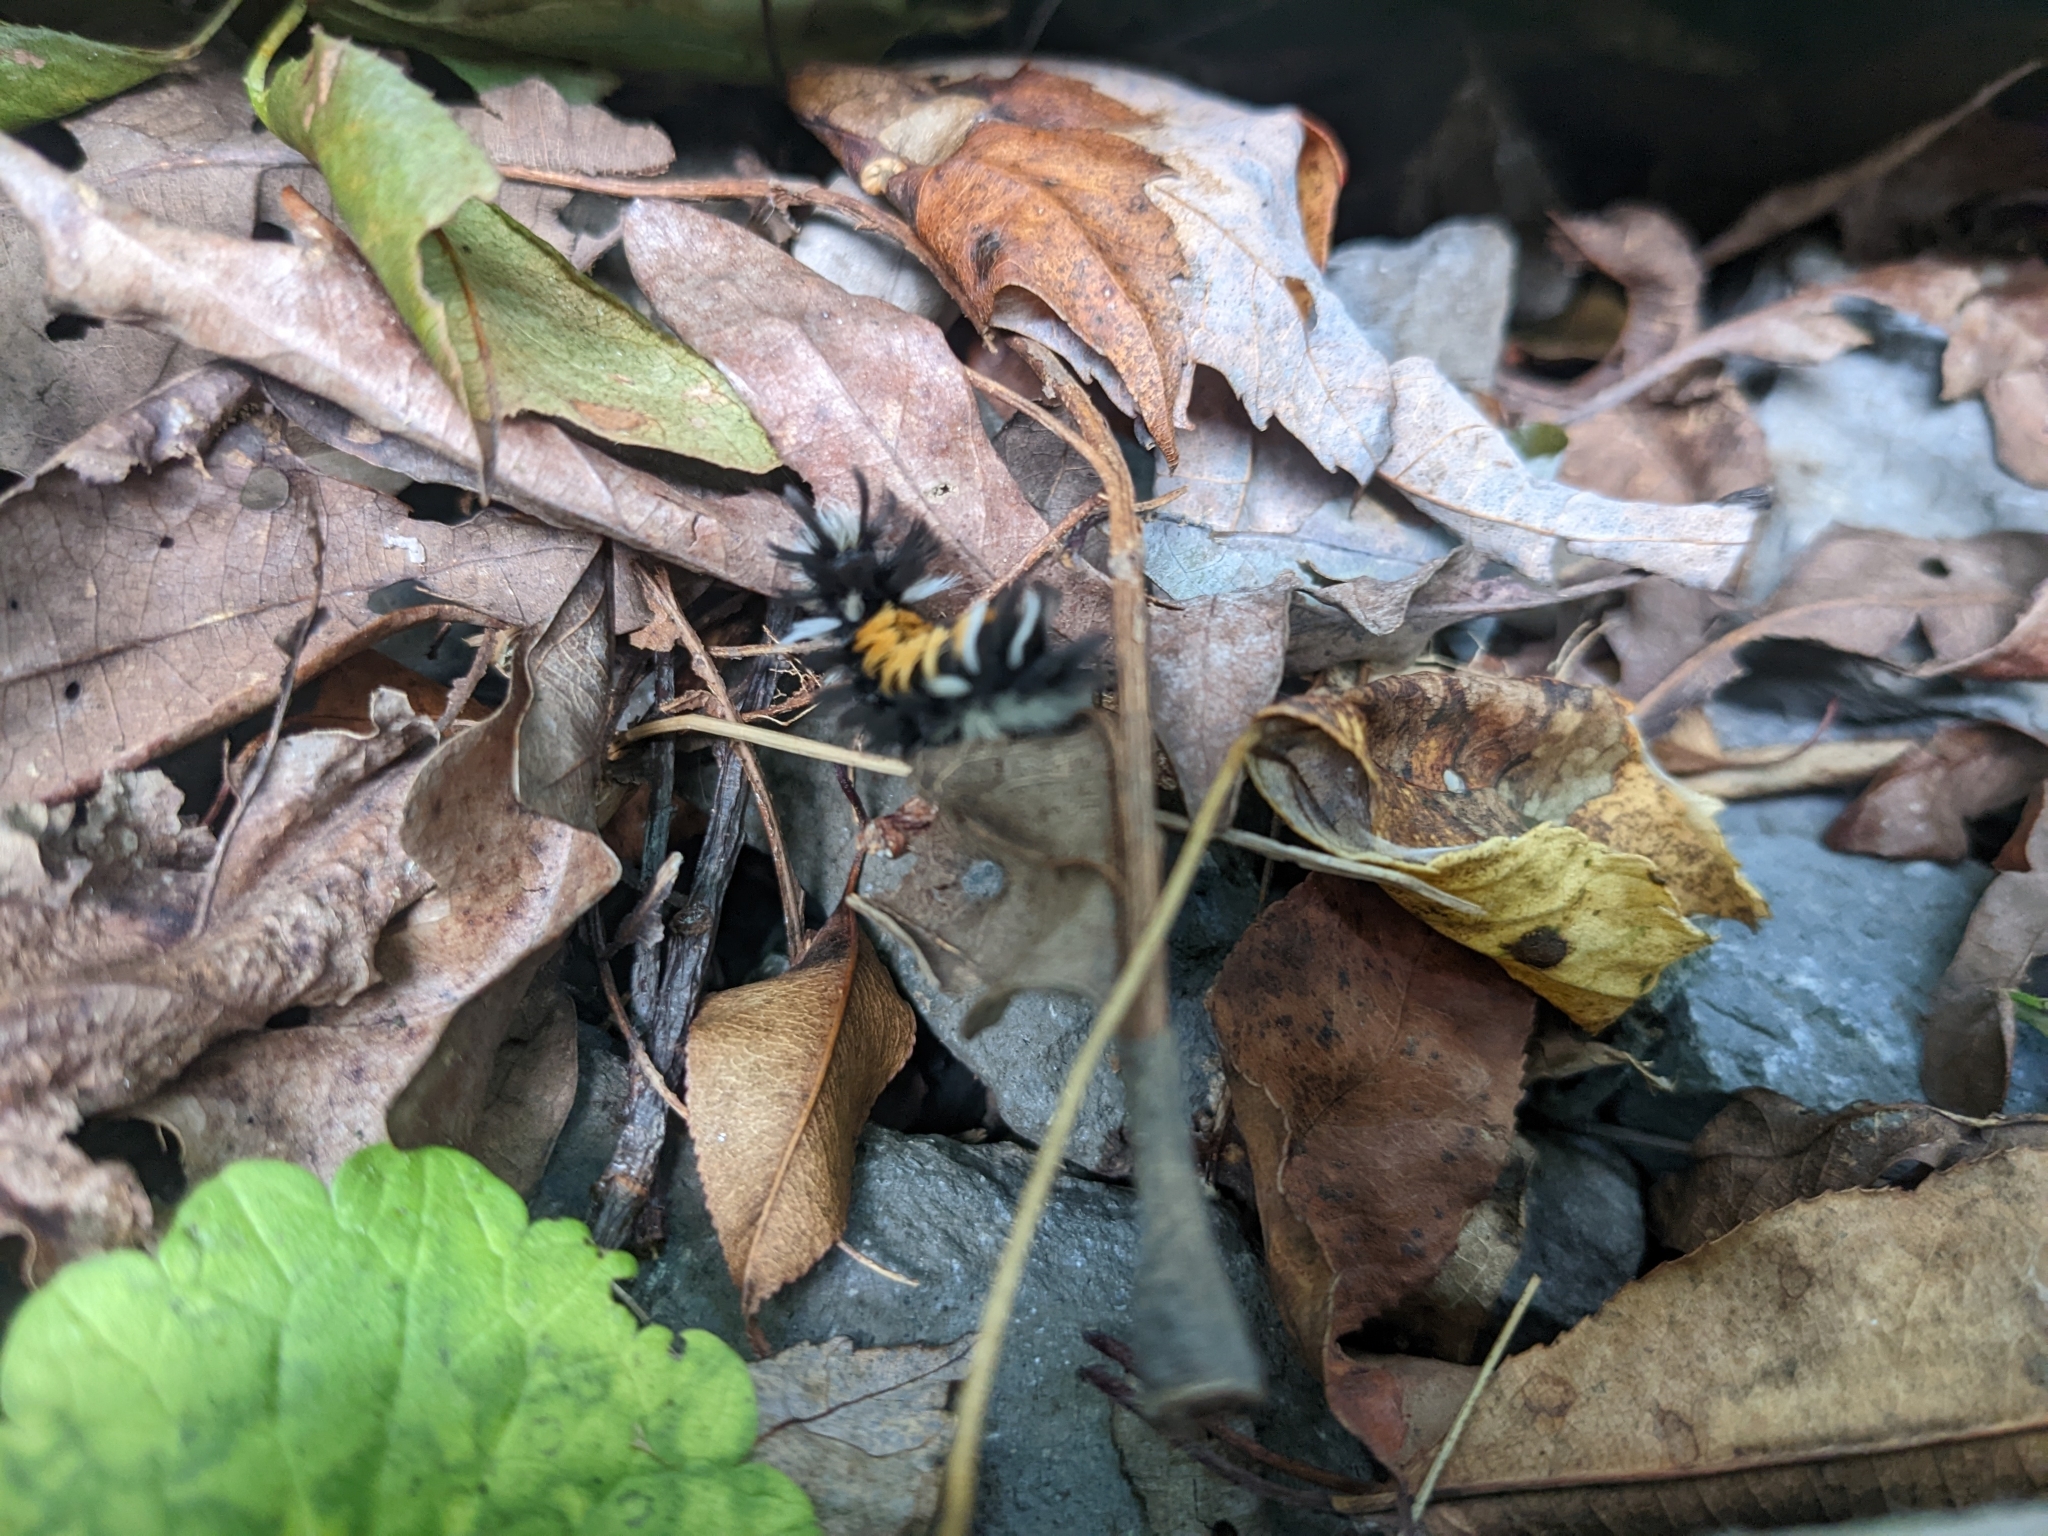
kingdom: Animalia
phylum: Arthropoda
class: Insecta
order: Lepidoptera
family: Erebidae
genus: Euchaetes
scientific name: Euchaetes egle
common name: Milkweed tussock moth
